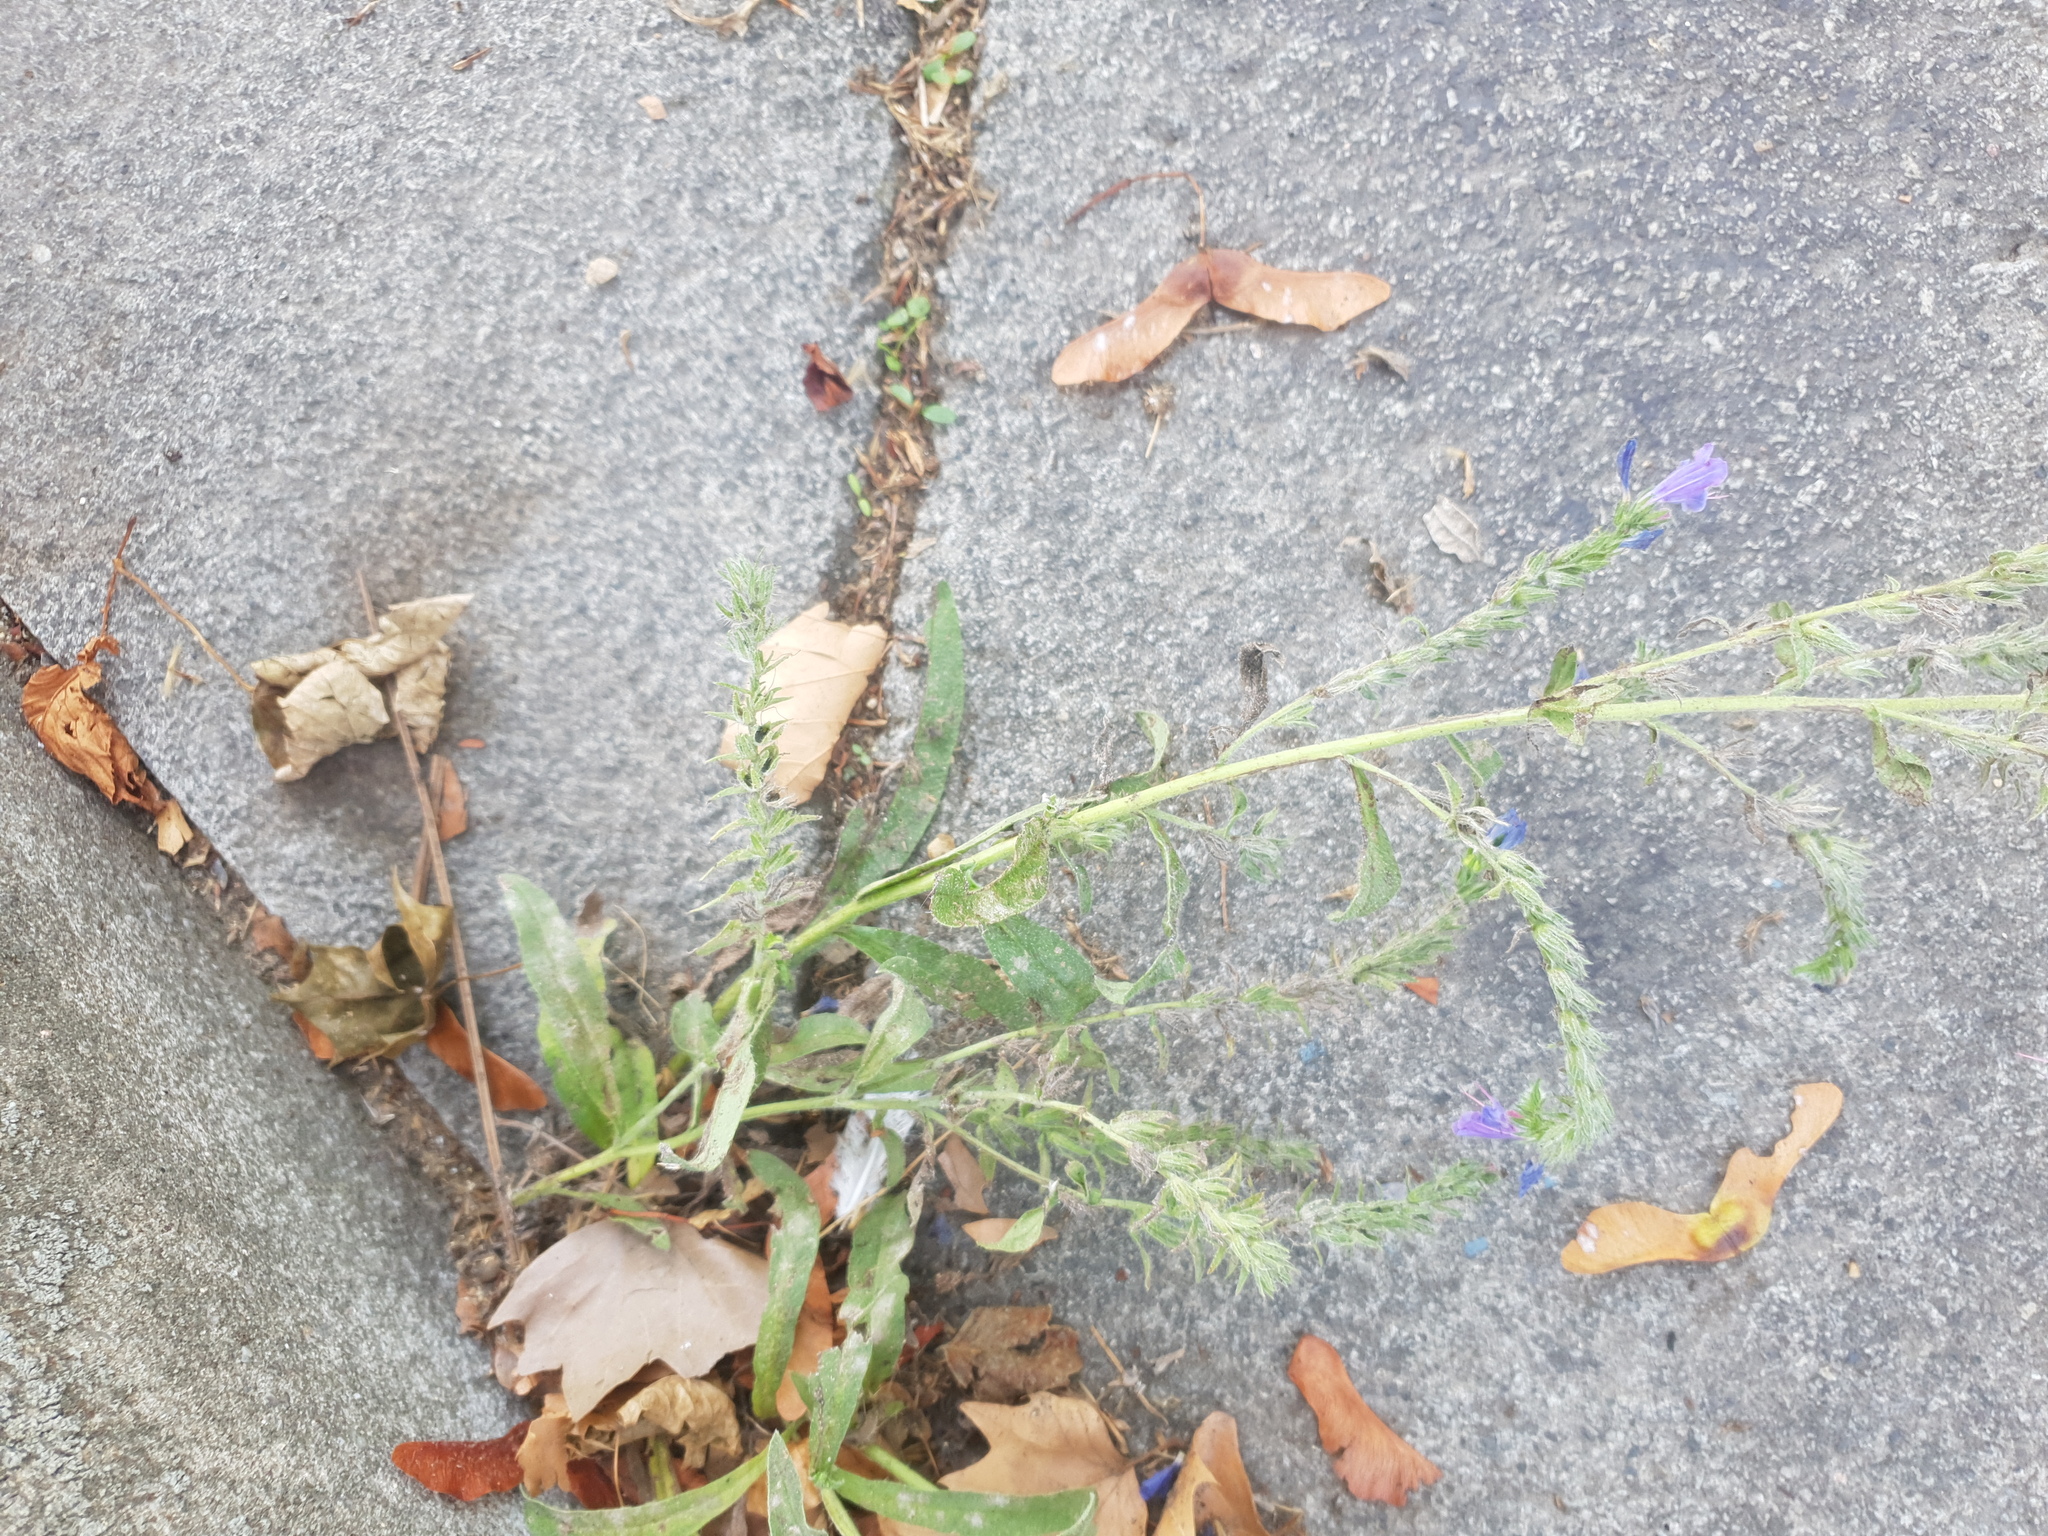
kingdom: Plantae
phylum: Tracheophyta
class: Magnoliopsida
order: Boraginales
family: Boraginaceae
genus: Echium
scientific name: Echium vulgare
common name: Common viper's bugloss
